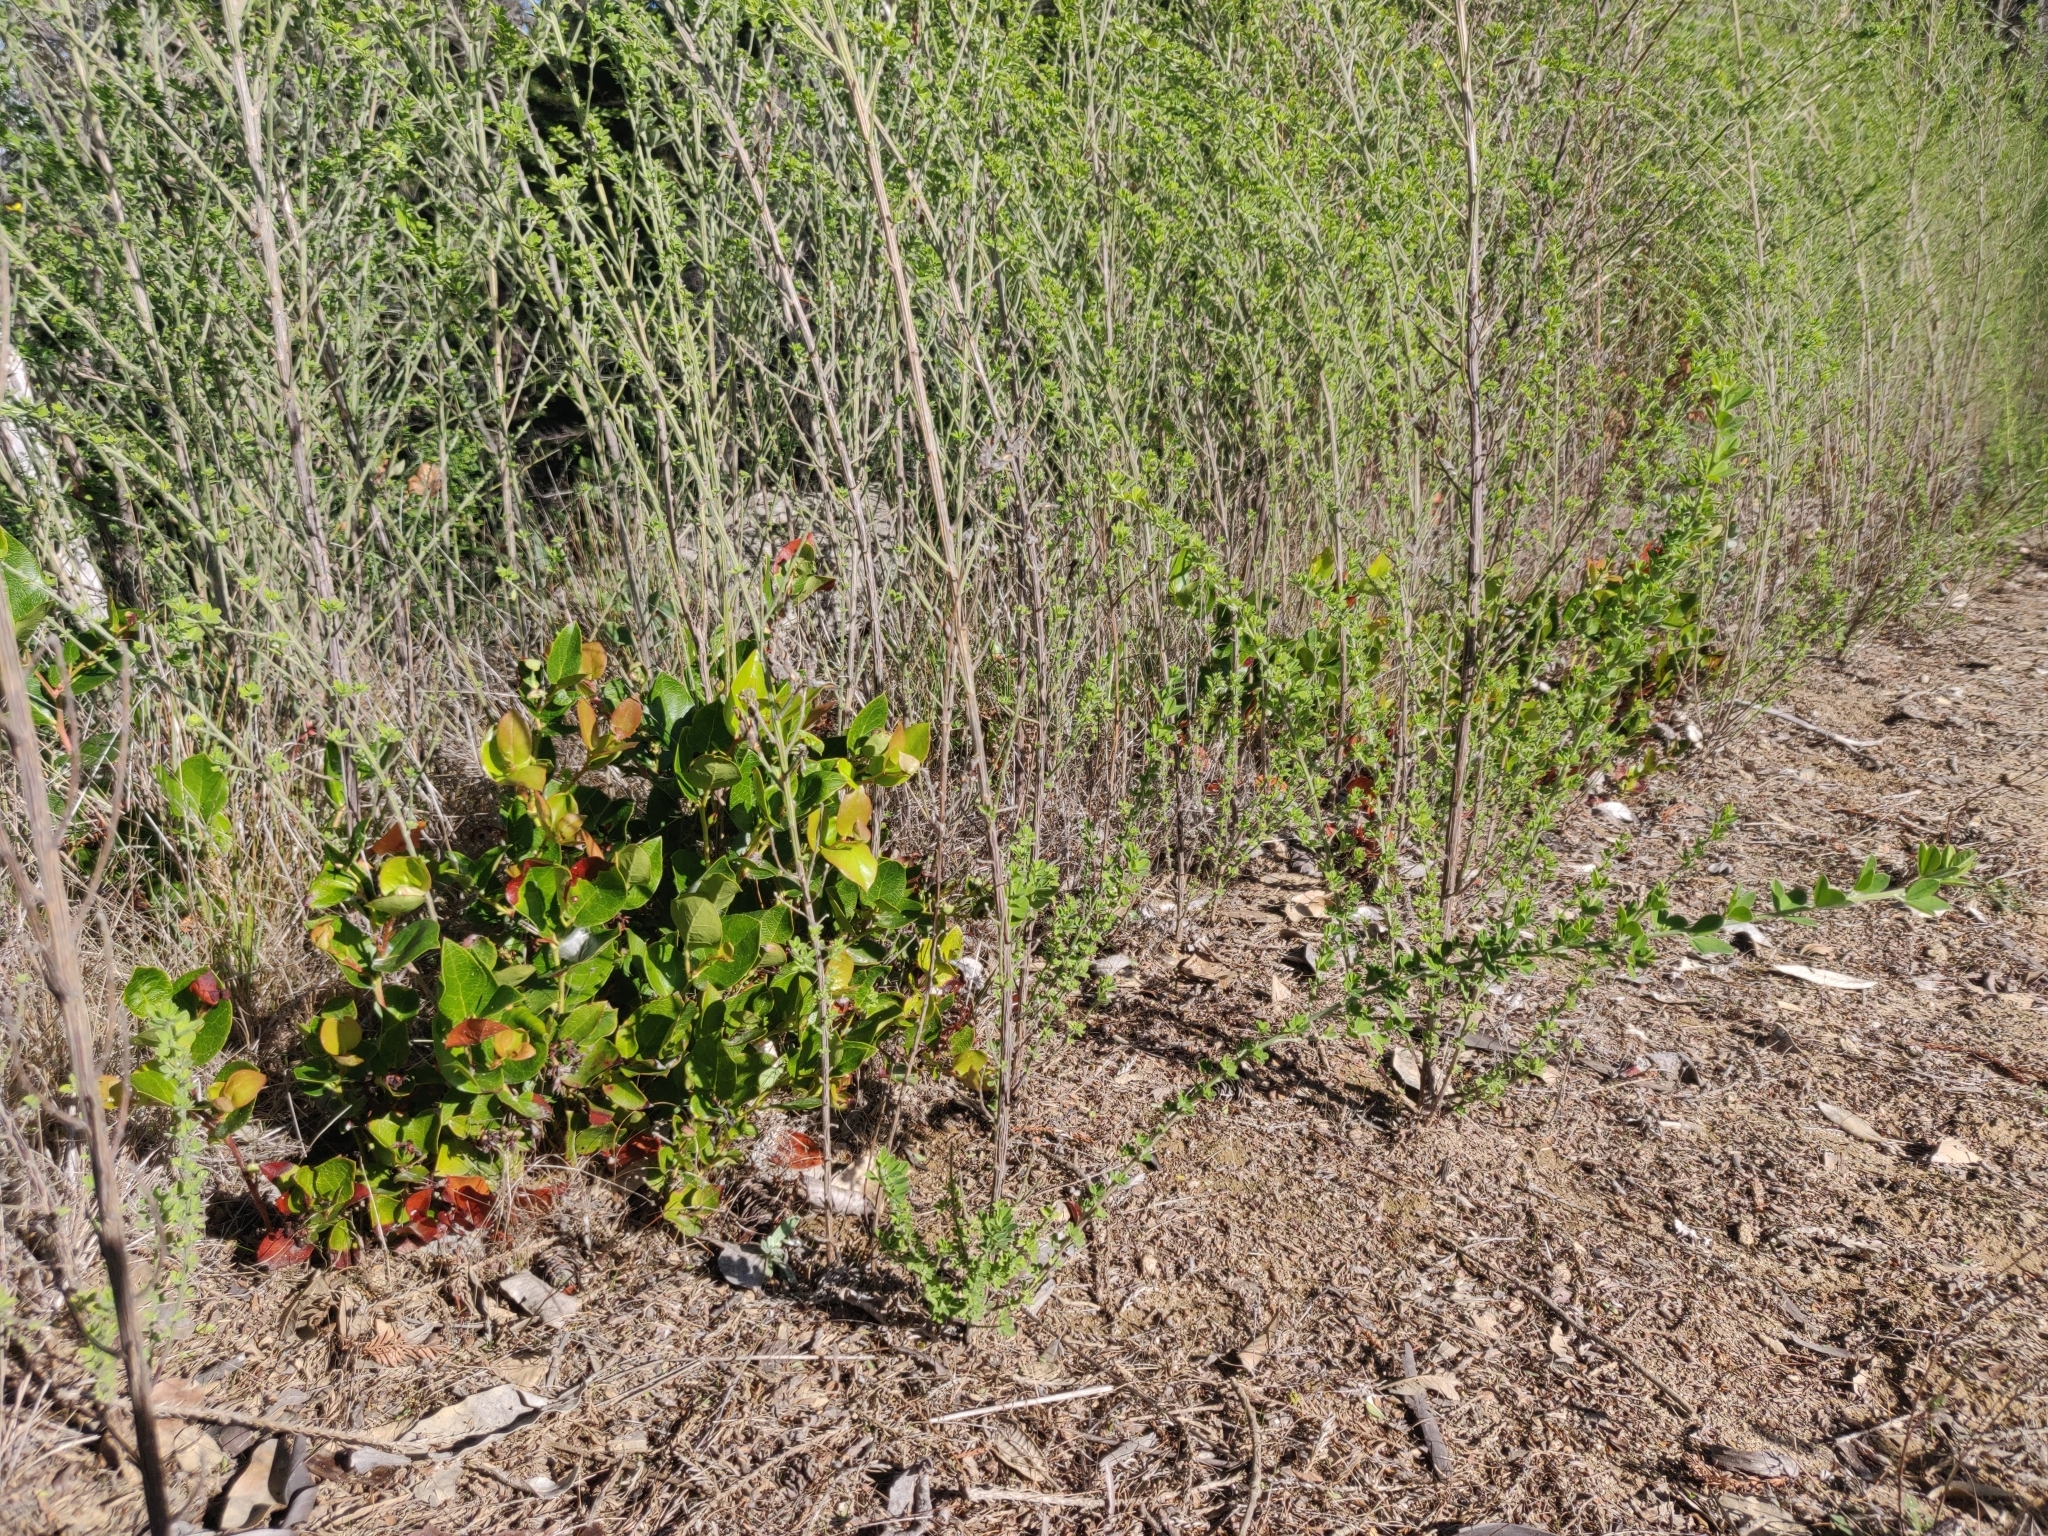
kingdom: Plantae
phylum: Tracheophyta
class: Magnoliopsida
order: Ericales
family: Ericaceae
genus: Gaultheria
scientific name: Gaultheria shallon
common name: Shallon
